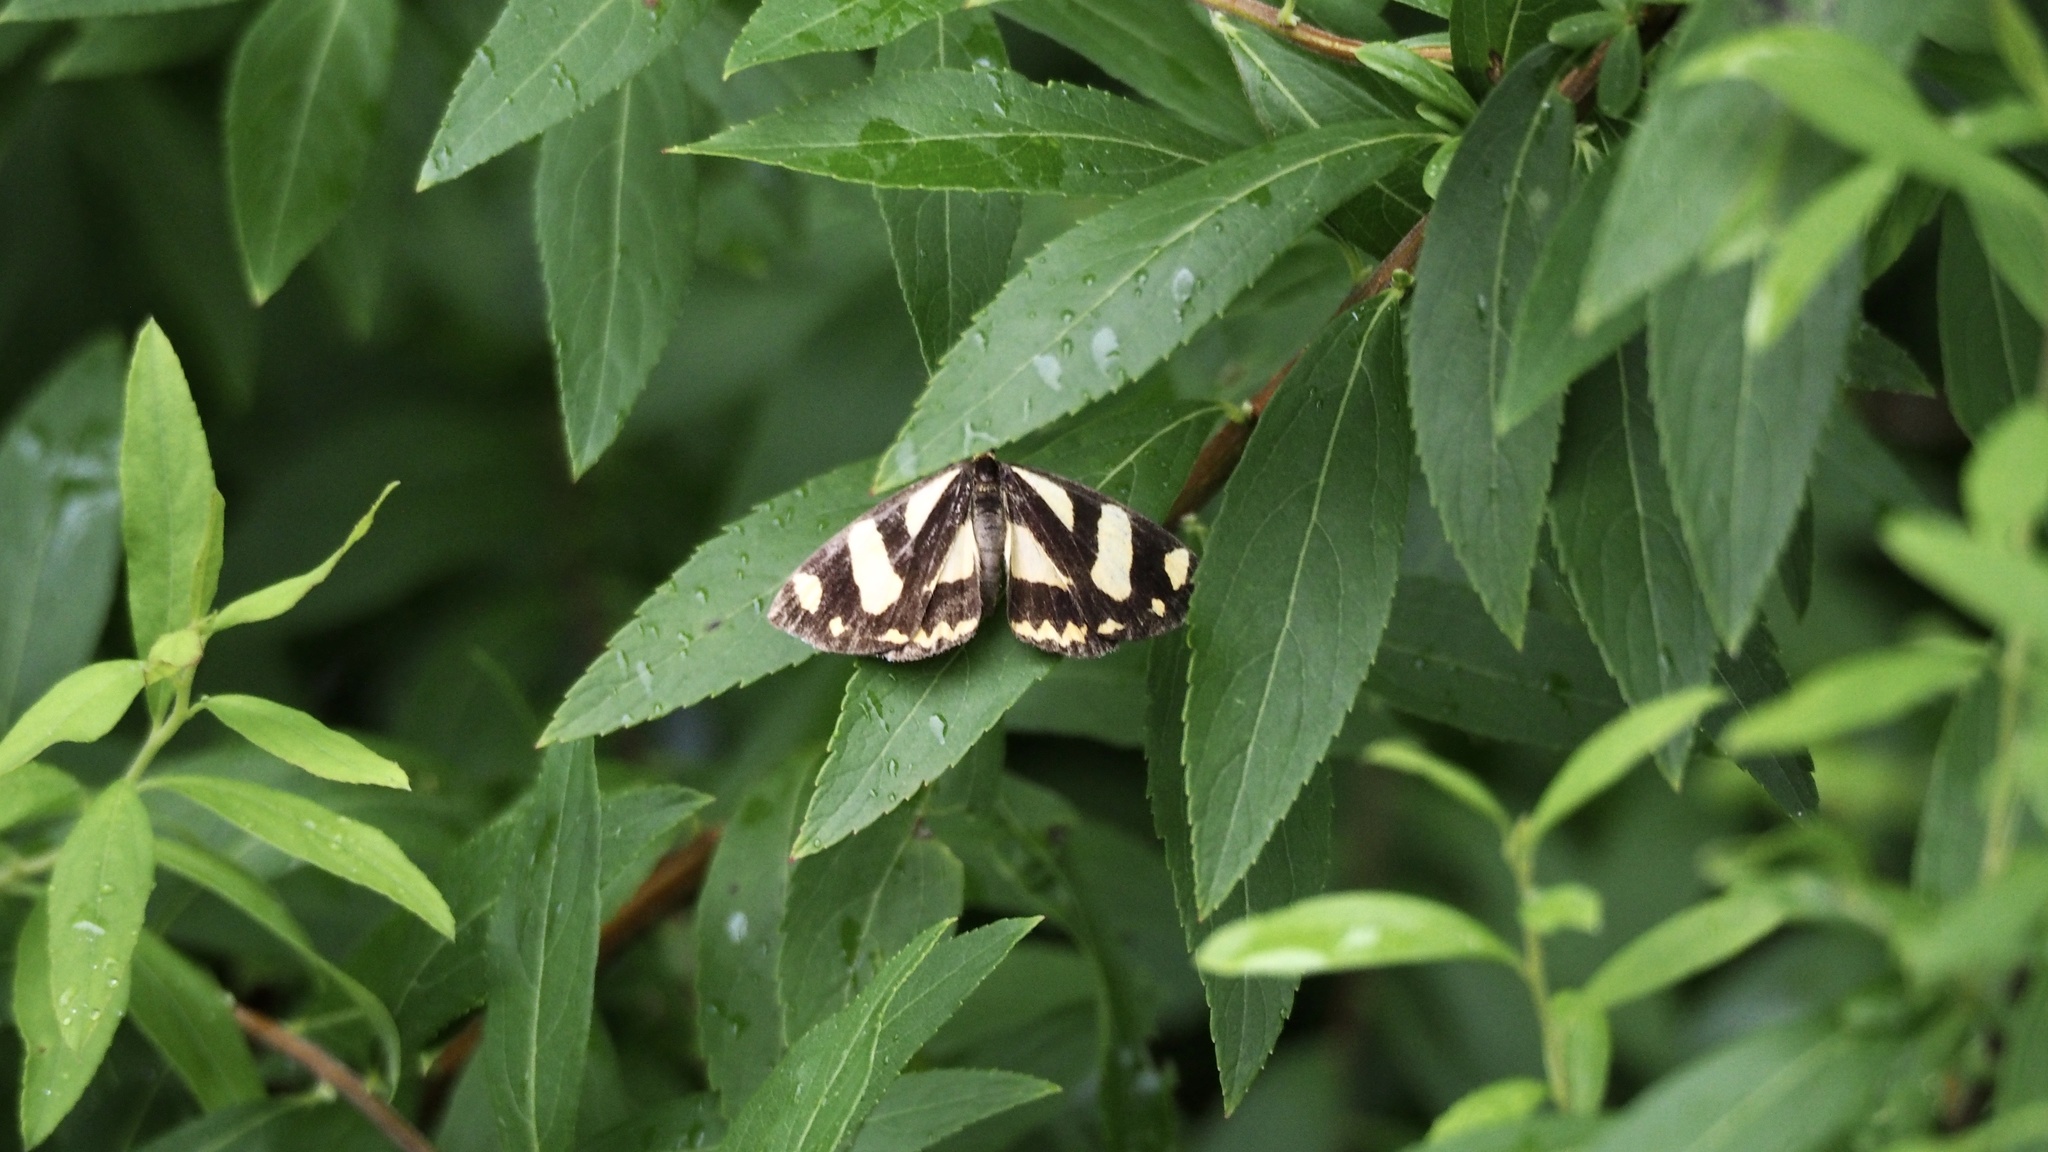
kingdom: Animalia
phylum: Arthropoda
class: Insecta
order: Lepidoptera
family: Epicopeiidae
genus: Psychostrophia
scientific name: Psychostrophia melanargia
